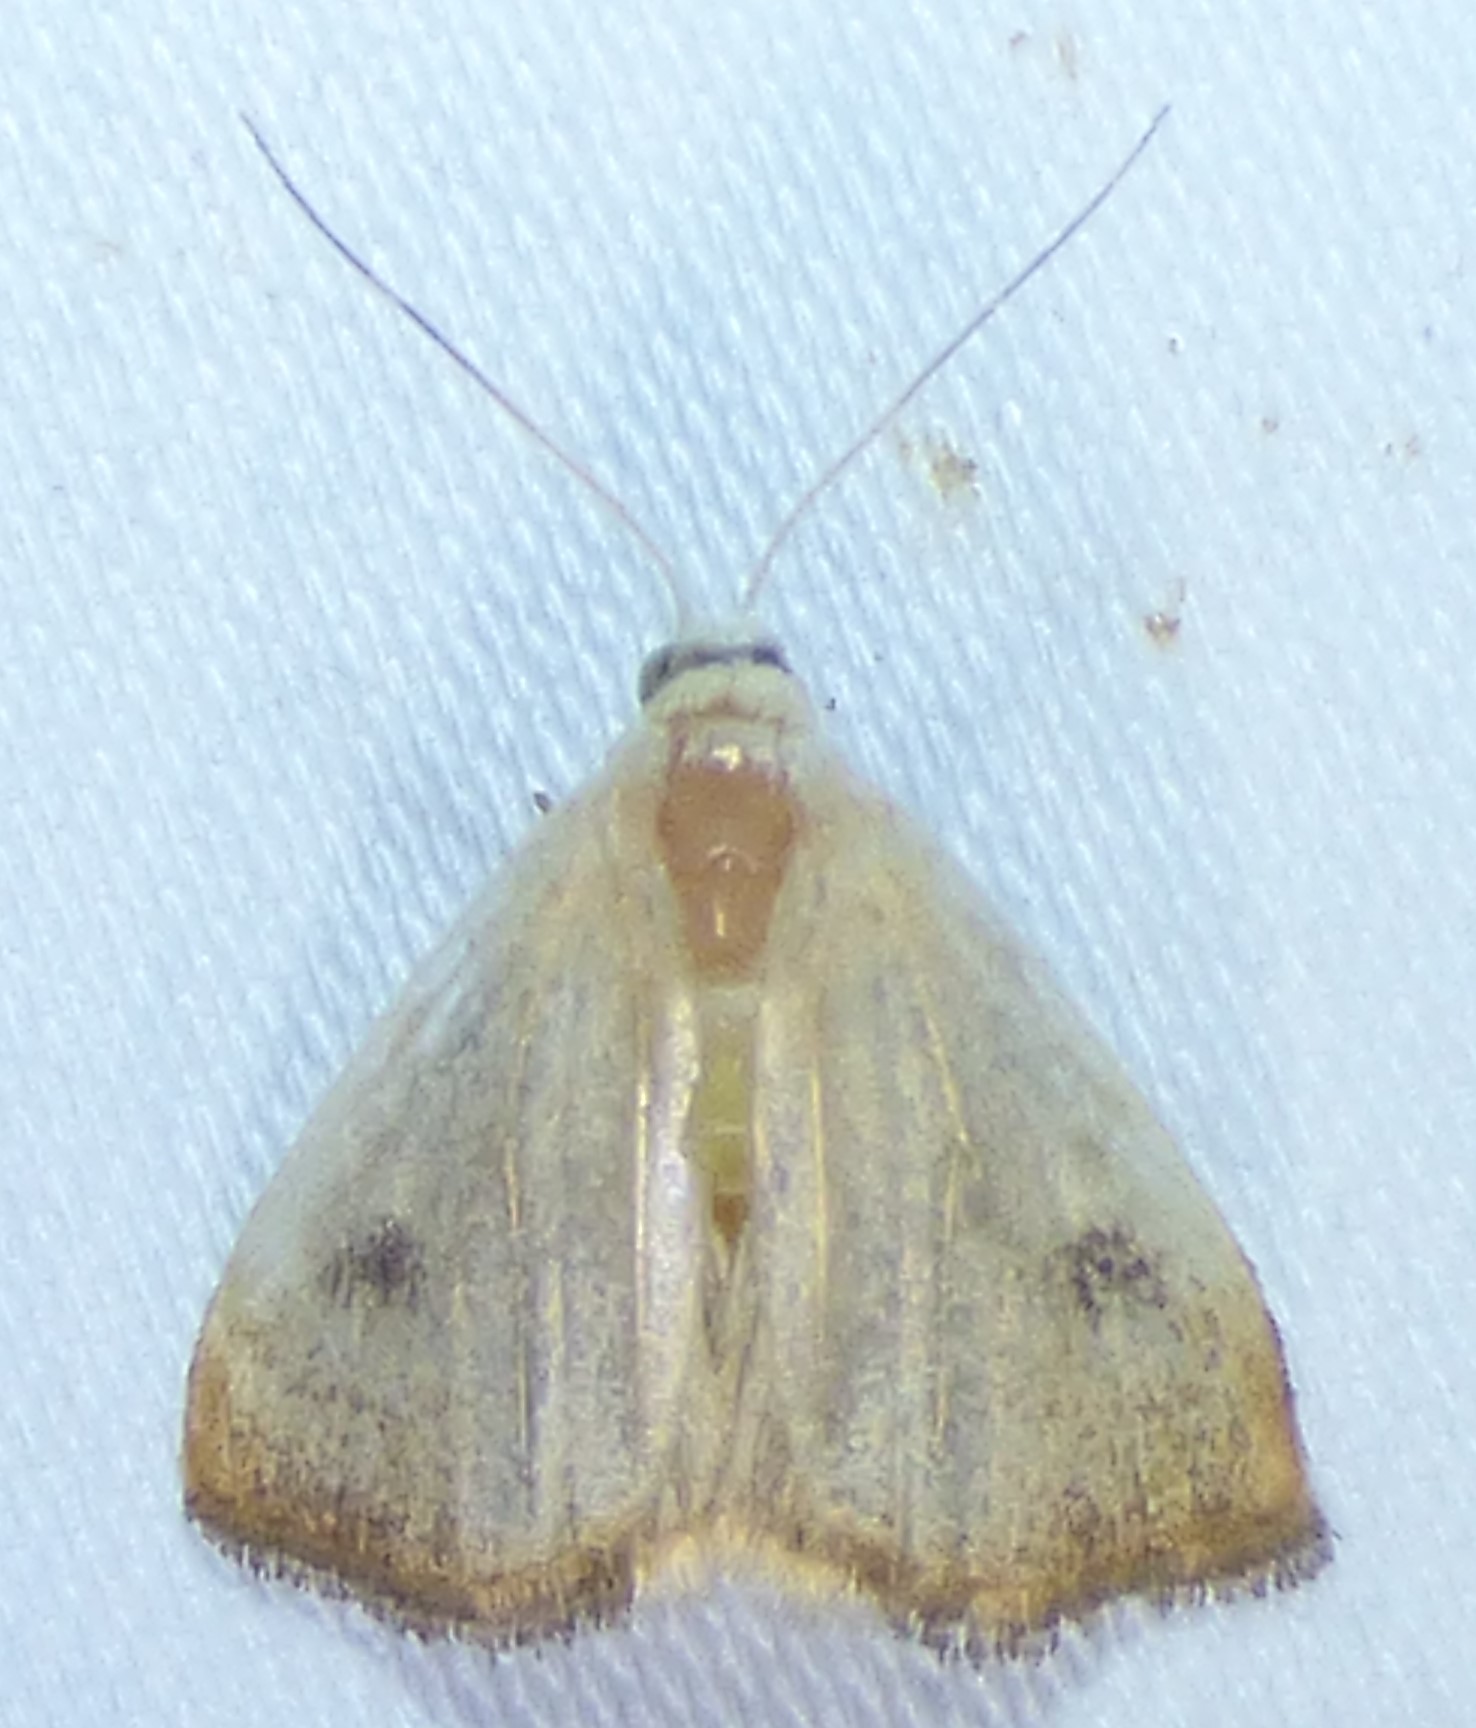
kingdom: Animalia
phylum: Arthropoda
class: Insecta
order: Lepidoptera
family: Erebidae
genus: Rivula
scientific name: Rivula propinqualis
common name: Spotted grass moth
